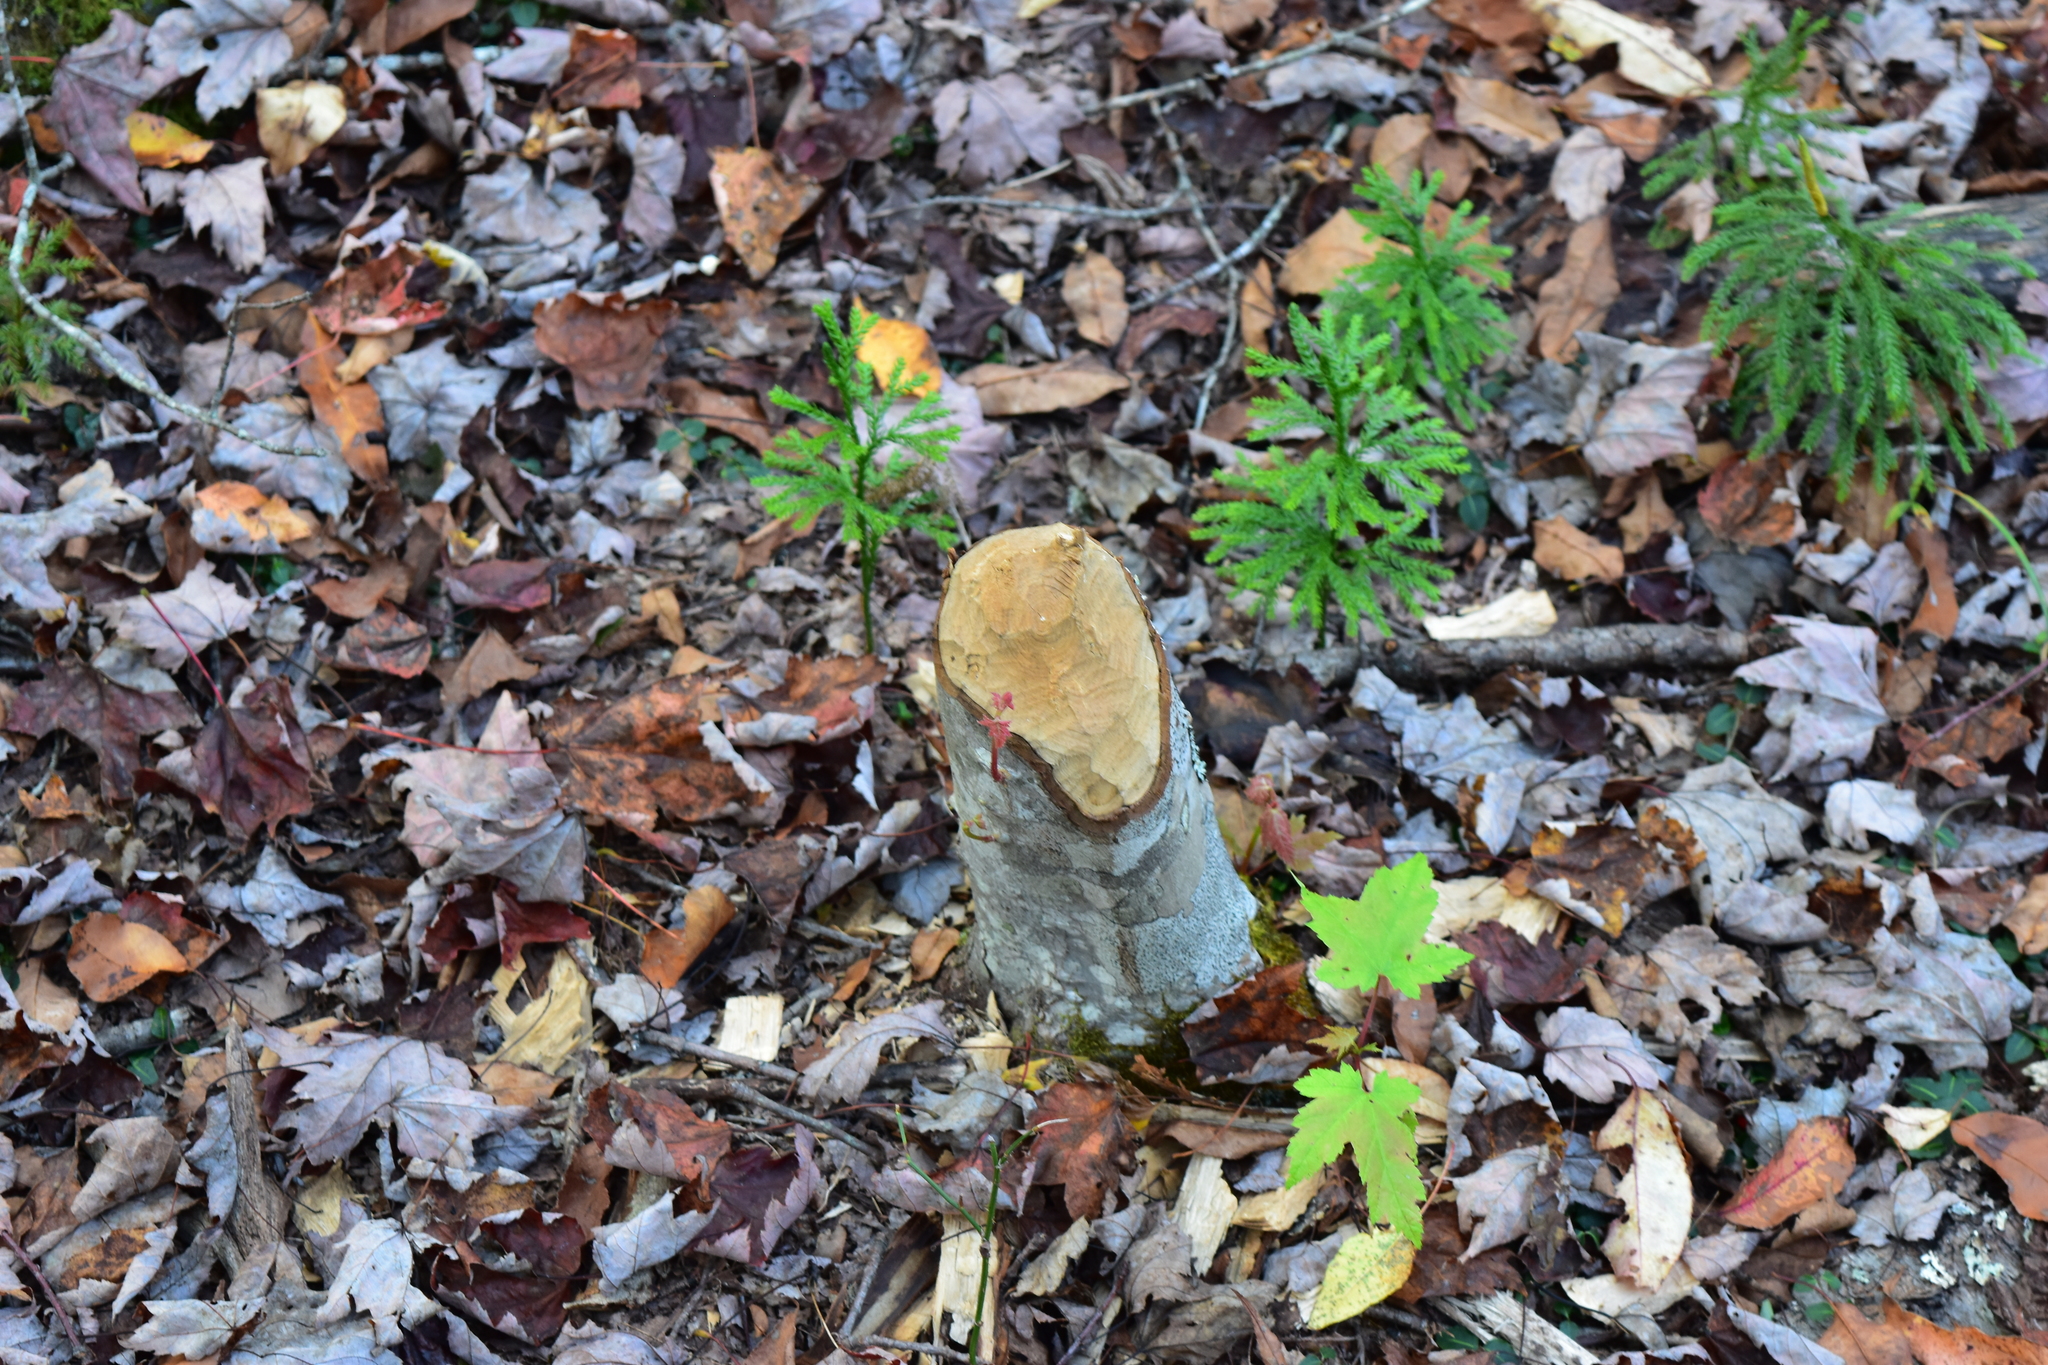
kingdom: Animalia
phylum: Chordata
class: Mammalia
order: Rodentia
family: Castoridae
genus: Castor
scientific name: Castor canadensis
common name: American beaver
